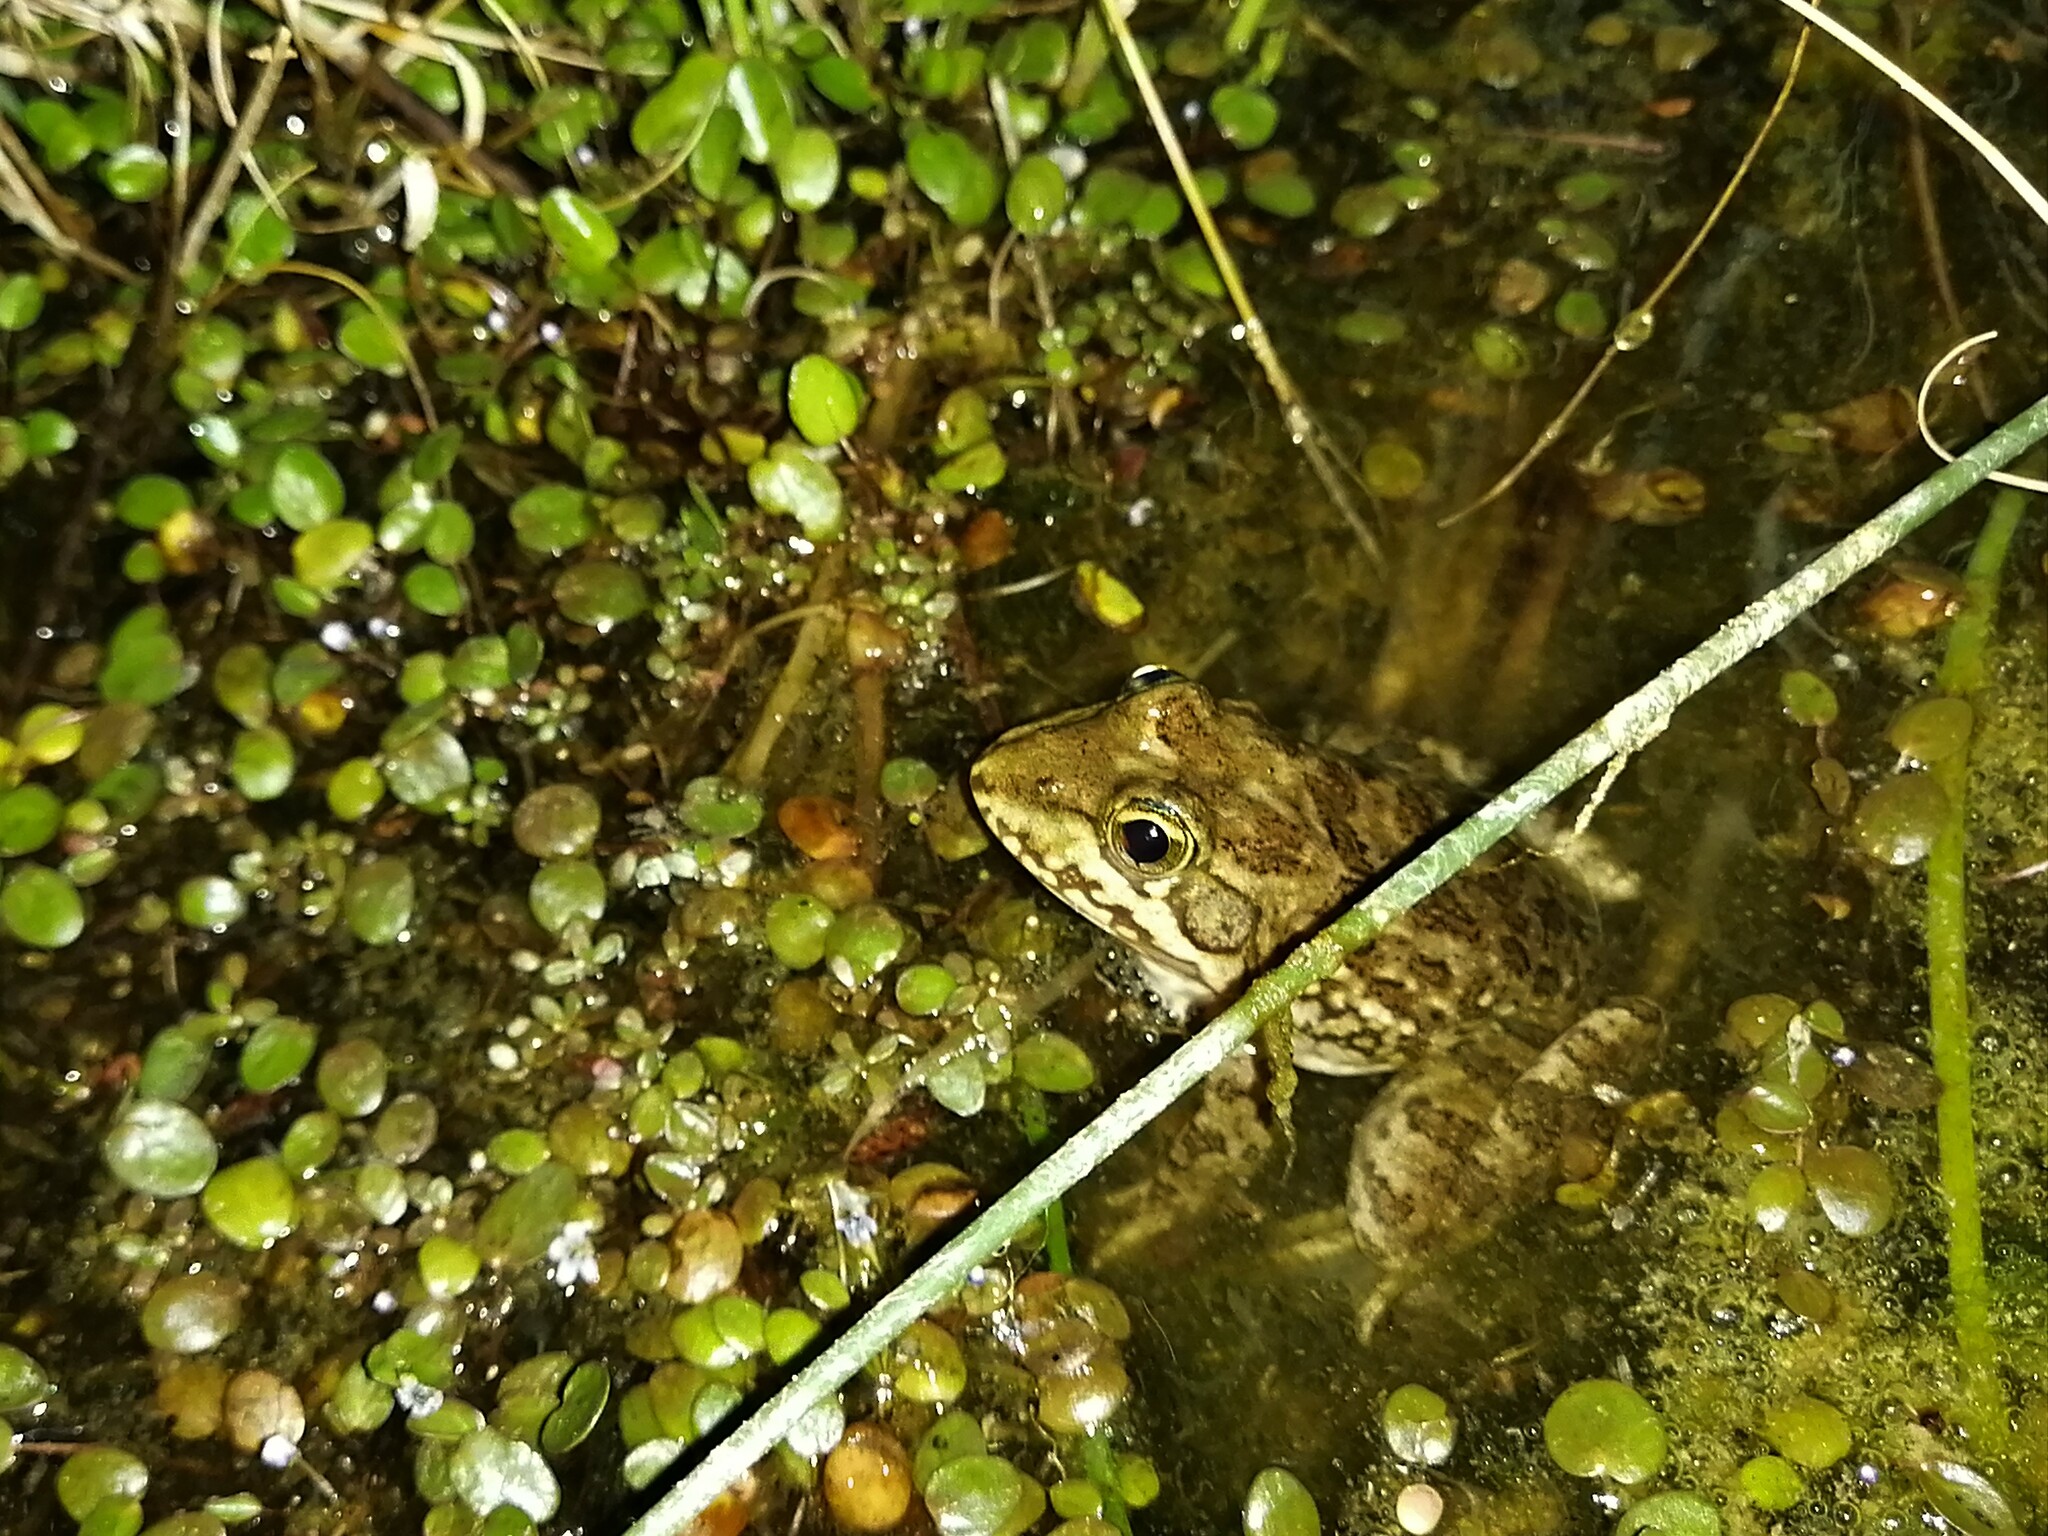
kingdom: Animalia
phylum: Chordata
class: Amphibia
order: Anura
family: Pyxicephalidae
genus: Amietia
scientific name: Amietia poyntoni
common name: Poynton's river frog
